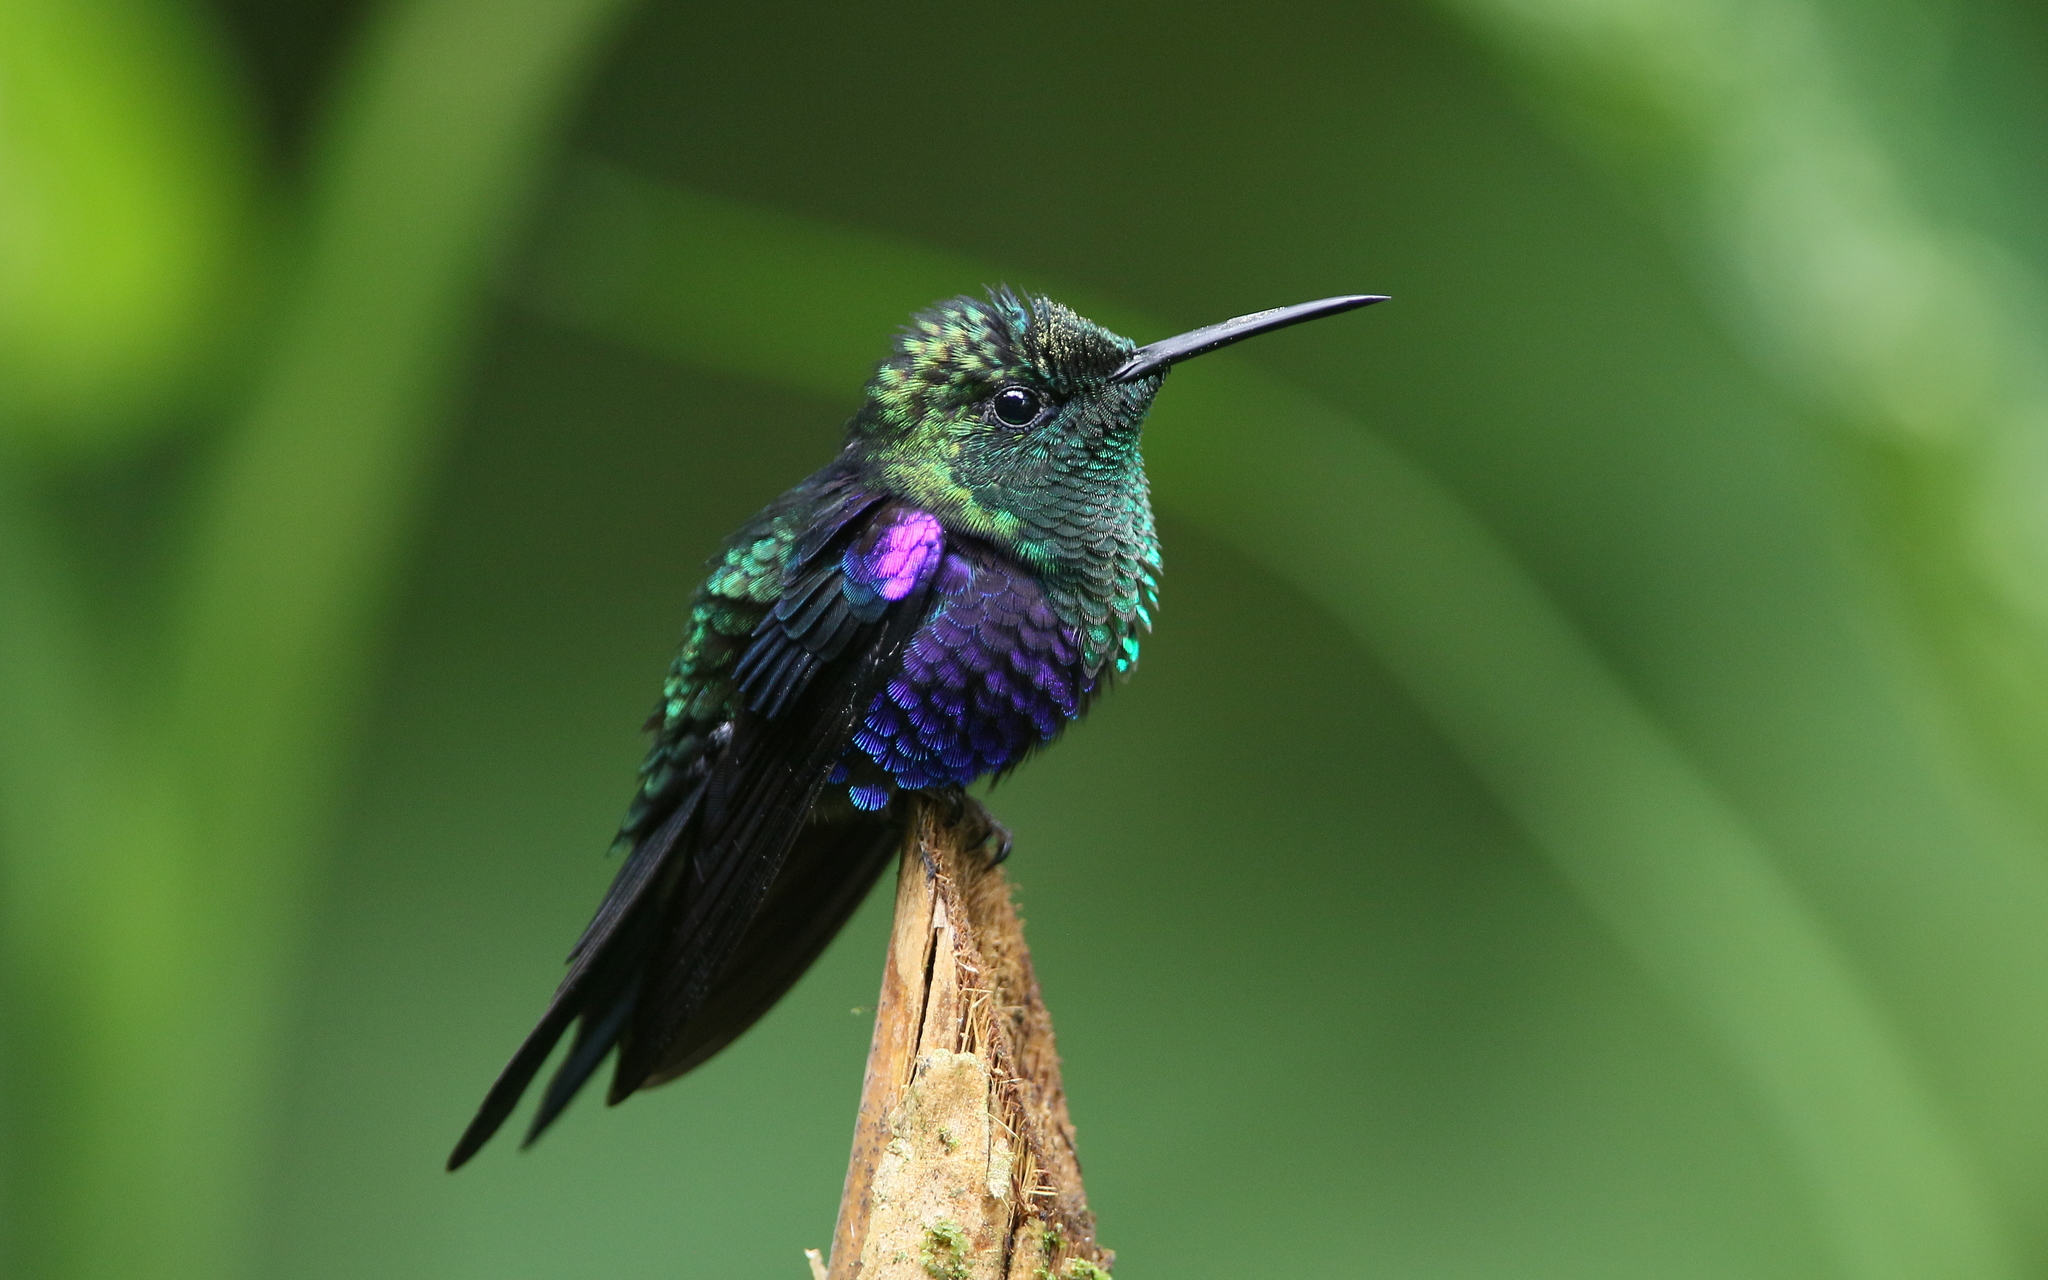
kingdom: Animalia
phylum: Chordata
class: Aves
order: Apodiformes
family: Trochilidae
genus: Thalurania
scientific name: Thalurania colombica
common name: Crowned woodnymph
